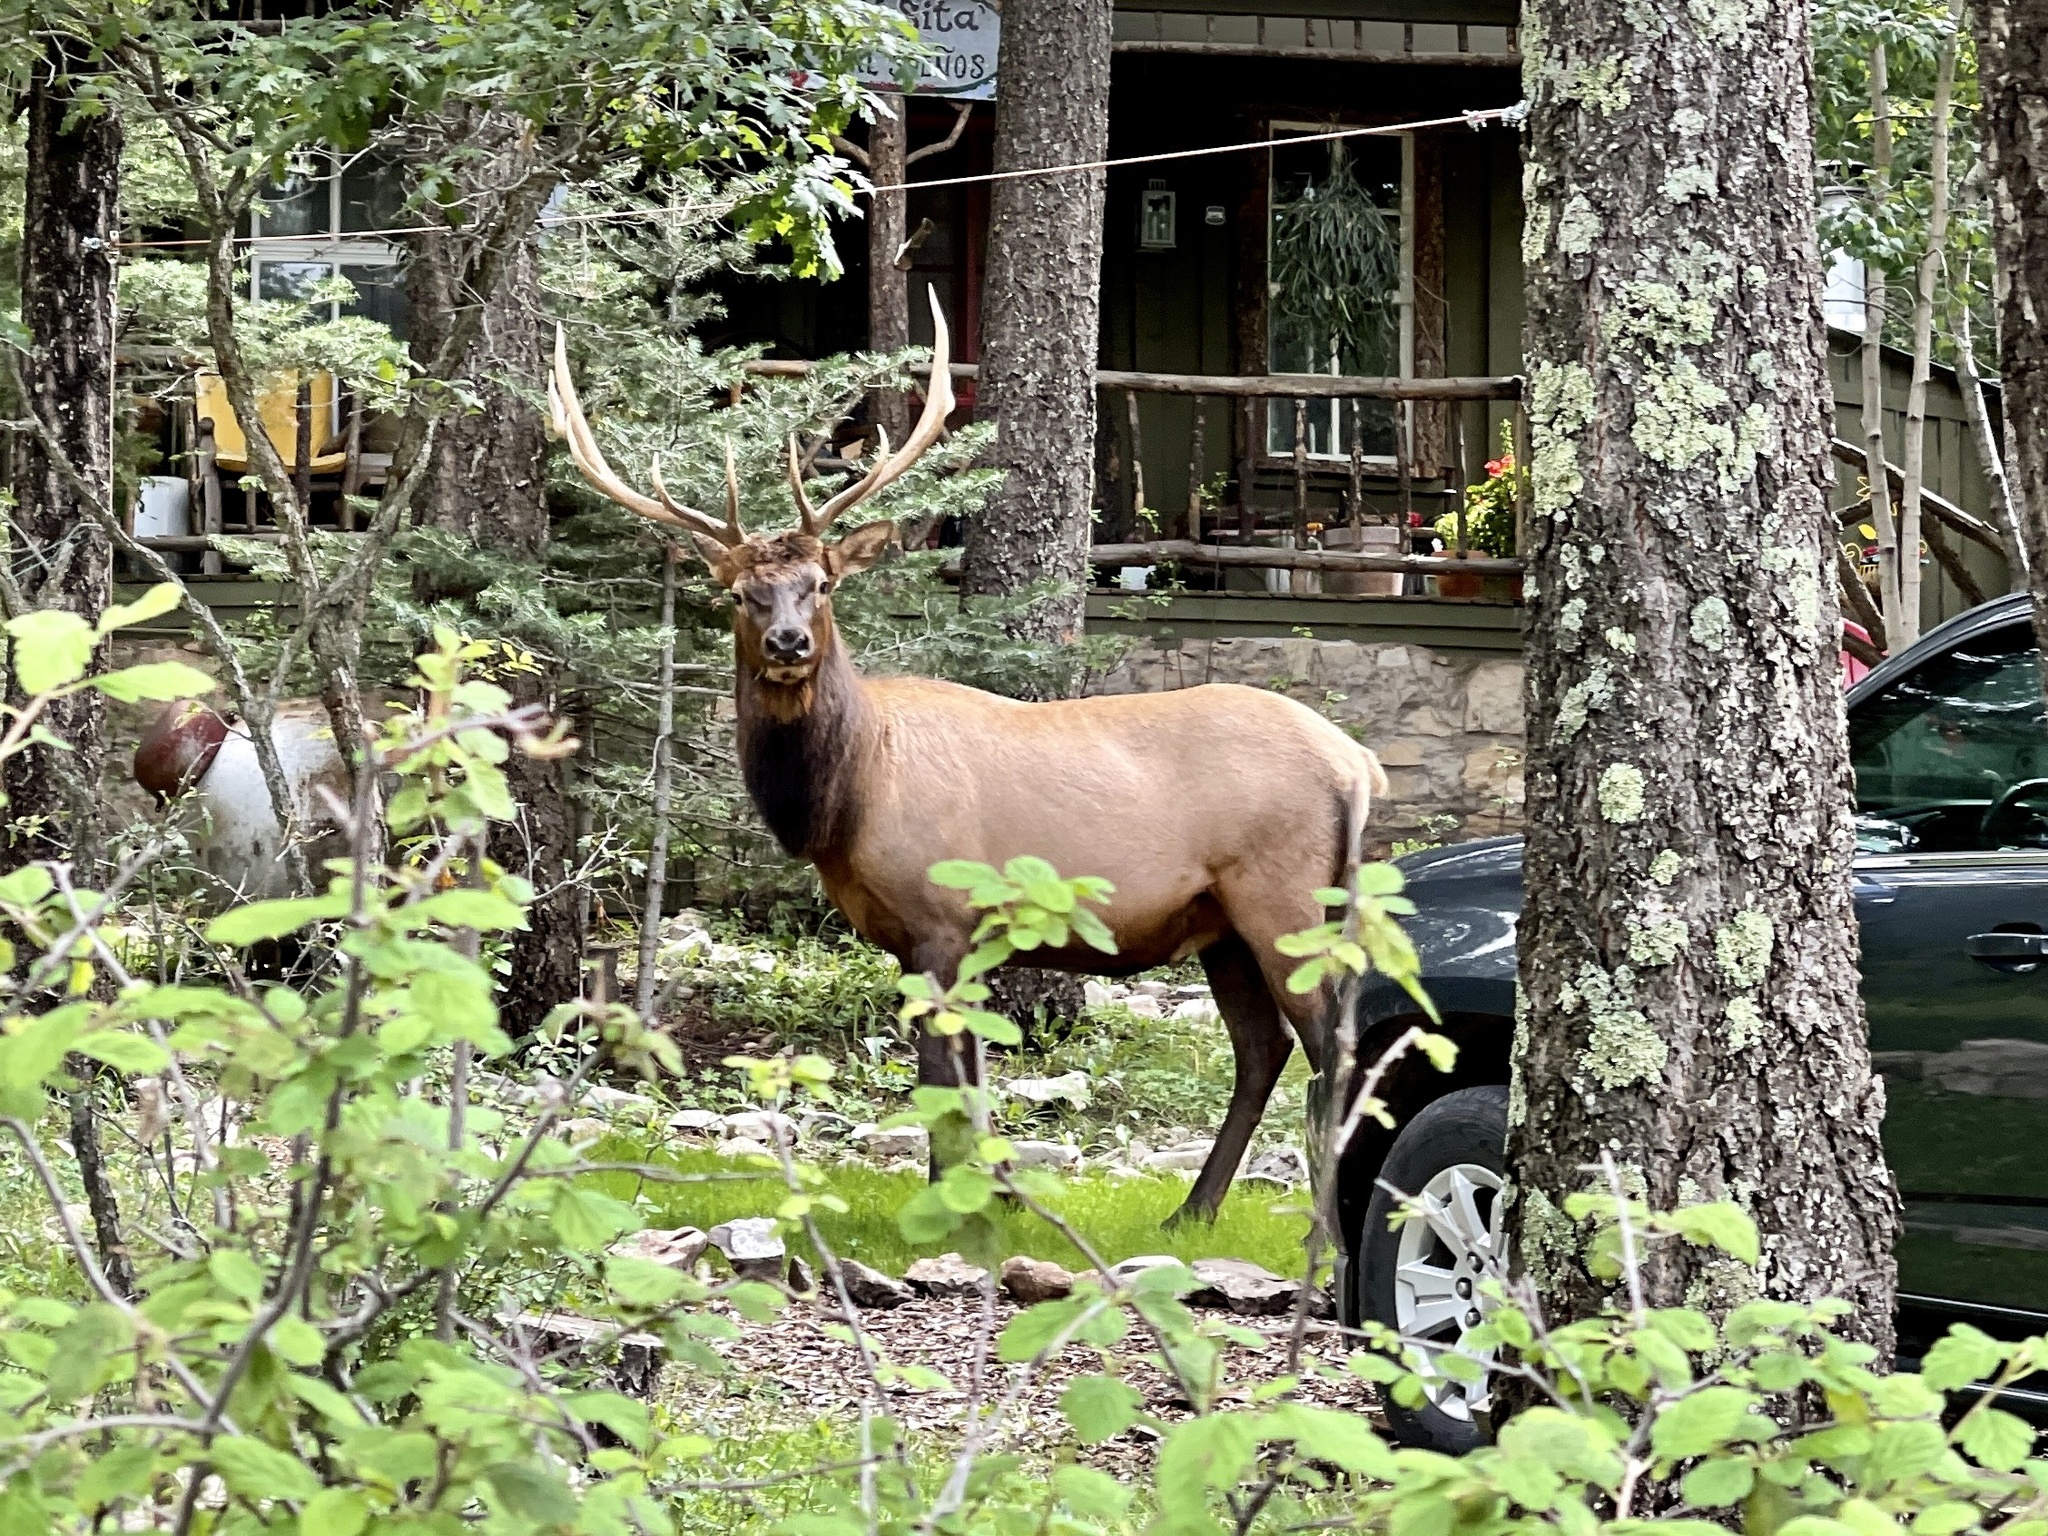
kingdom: Animalia
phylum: Chordata
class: Mammalia
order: Artiodactyla
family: Cervidae
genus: Cervus
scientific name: Cervus elaphus
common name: Red deer
